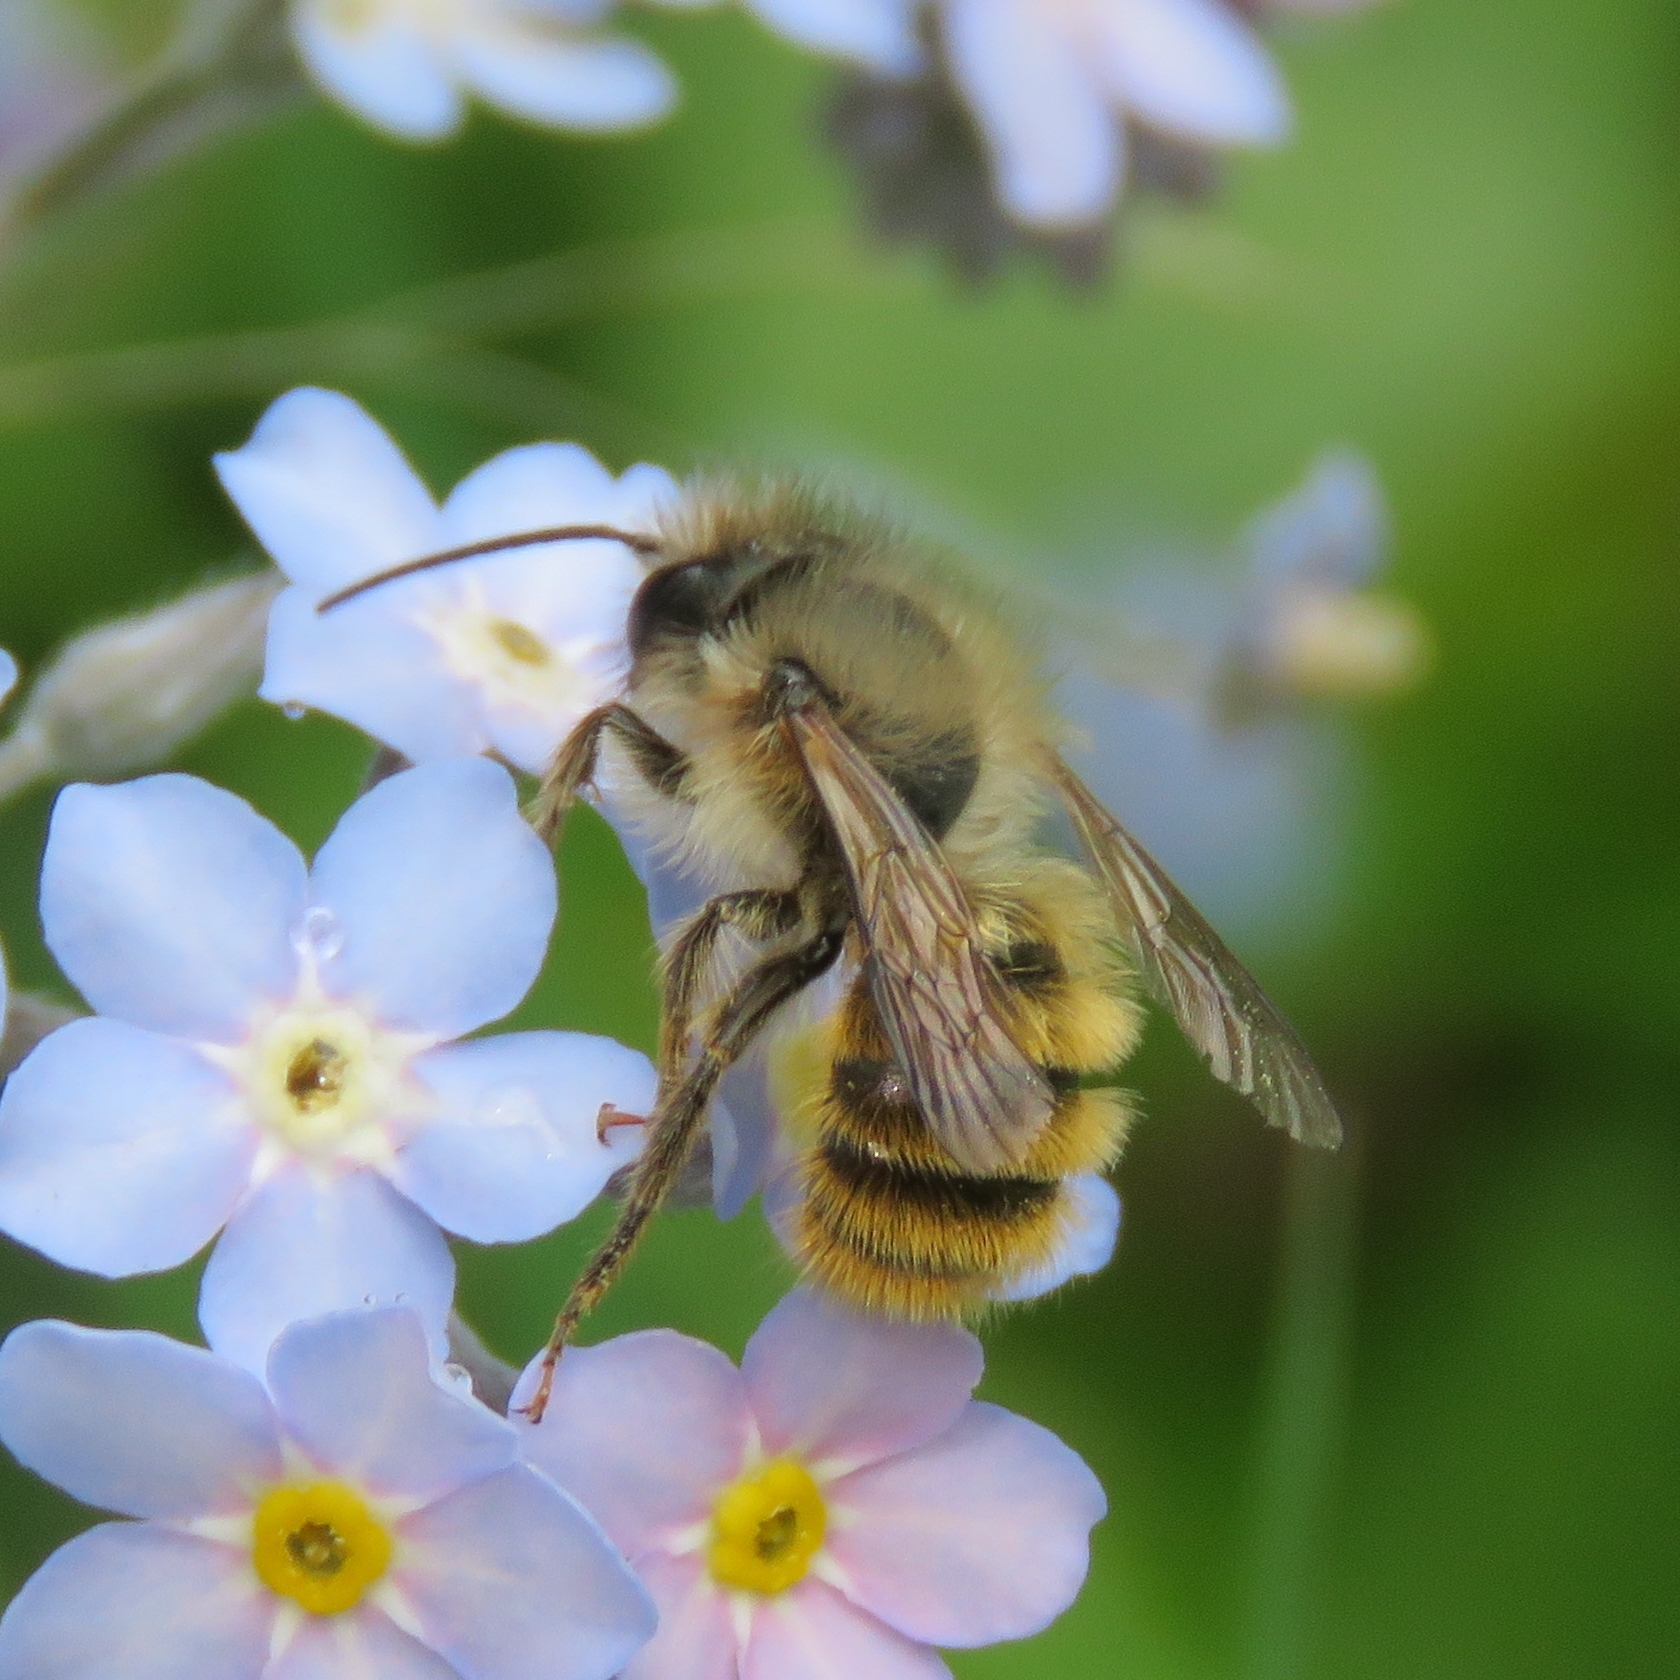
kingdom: Animalia
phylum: Arthropoda
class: Insecta
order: Hymenoptera
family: Megachilidae
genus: Osmia
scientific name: Osmia bicornis
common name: Red mason bee
